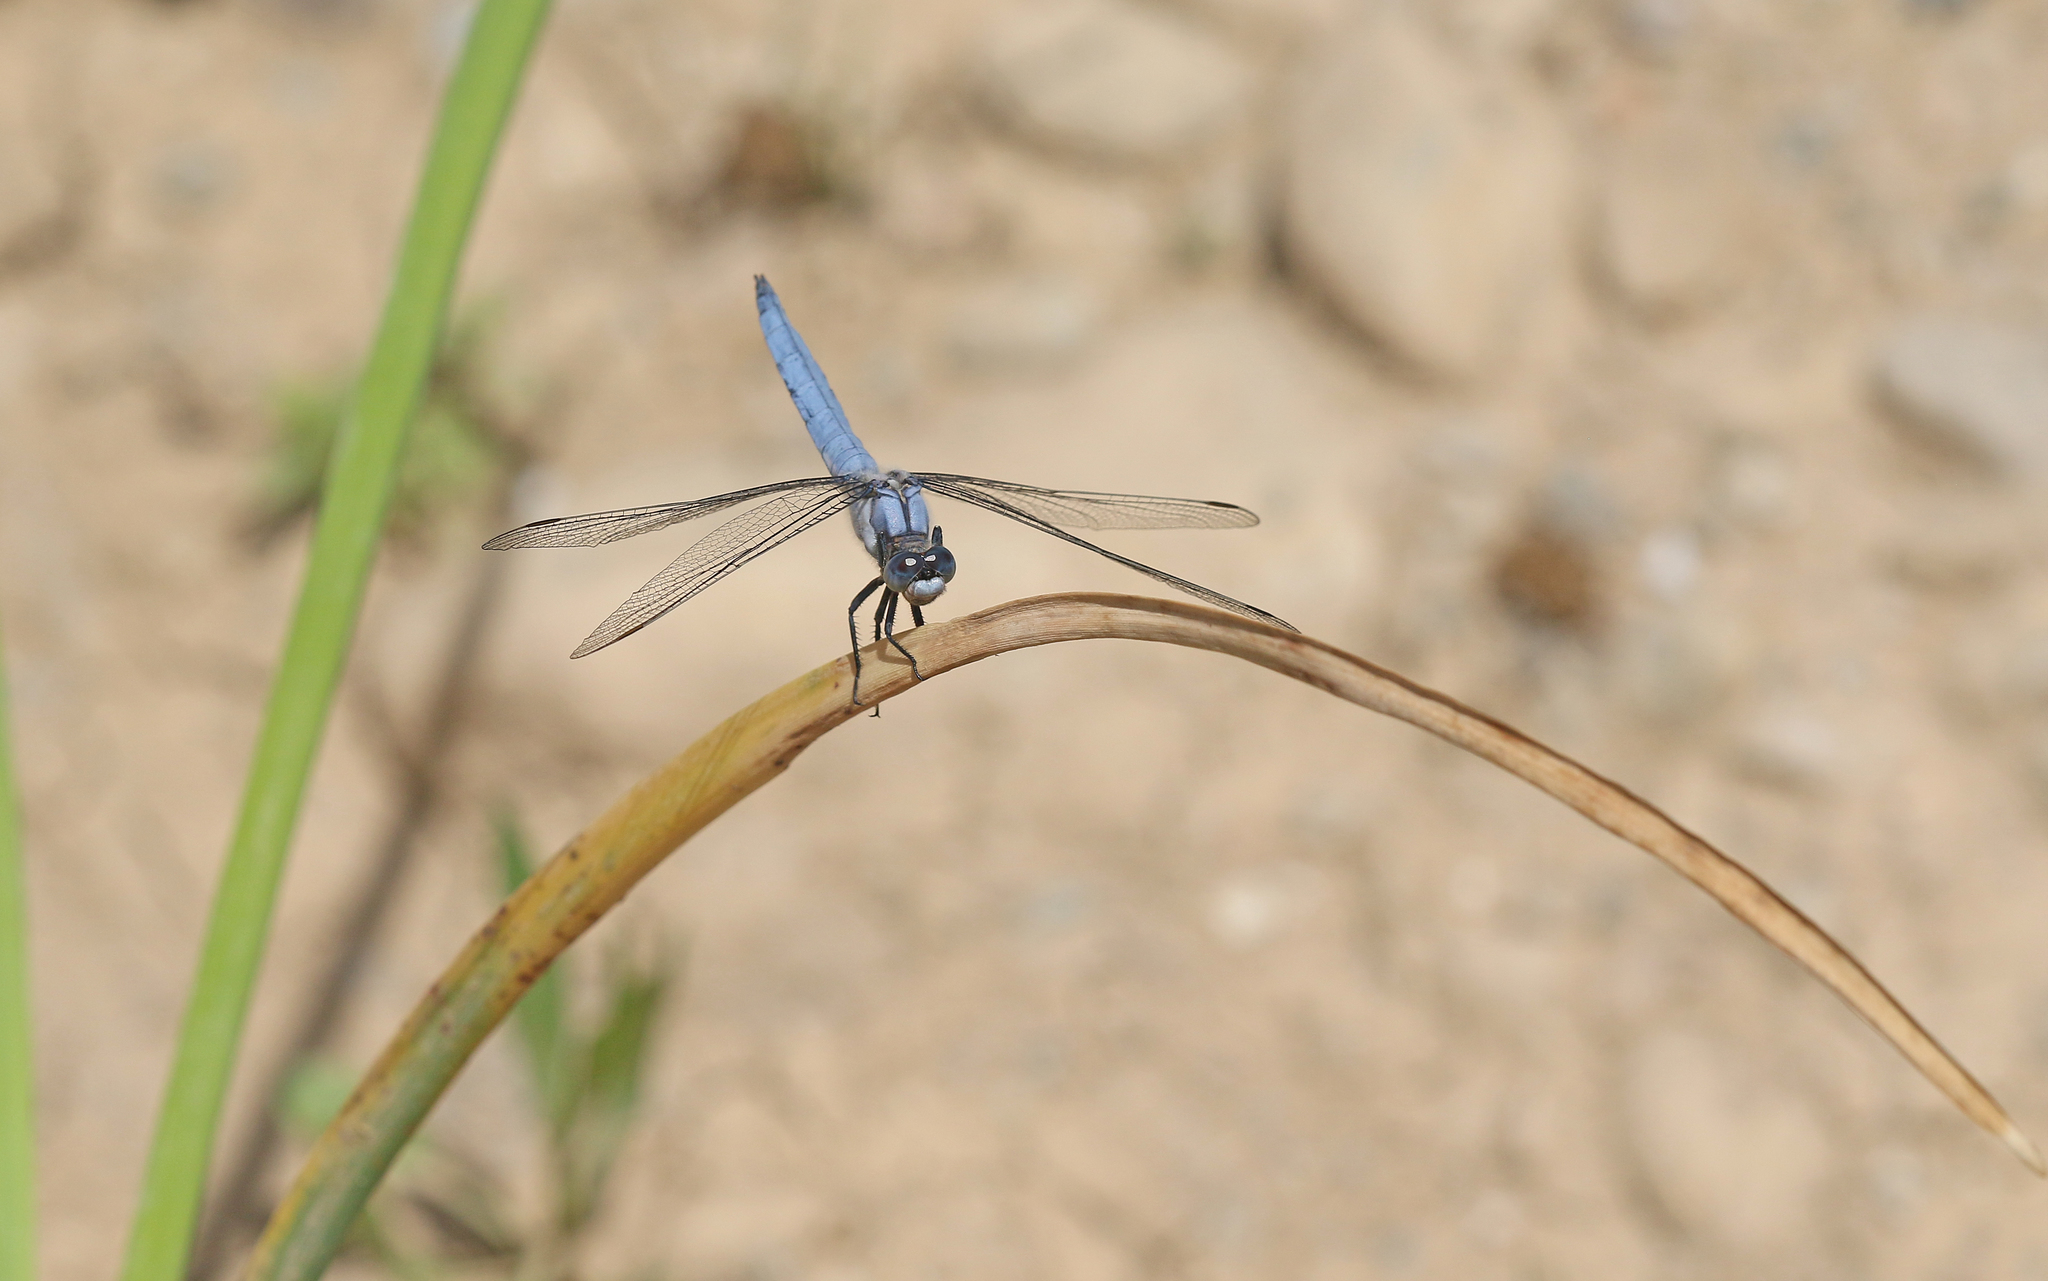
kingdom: Animalia
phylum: Arthropoda
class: Insecta
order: Odonata
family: Libellulidae
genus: Orthetrum
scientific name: Orthetrum brunneum
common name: Southern skimmer
